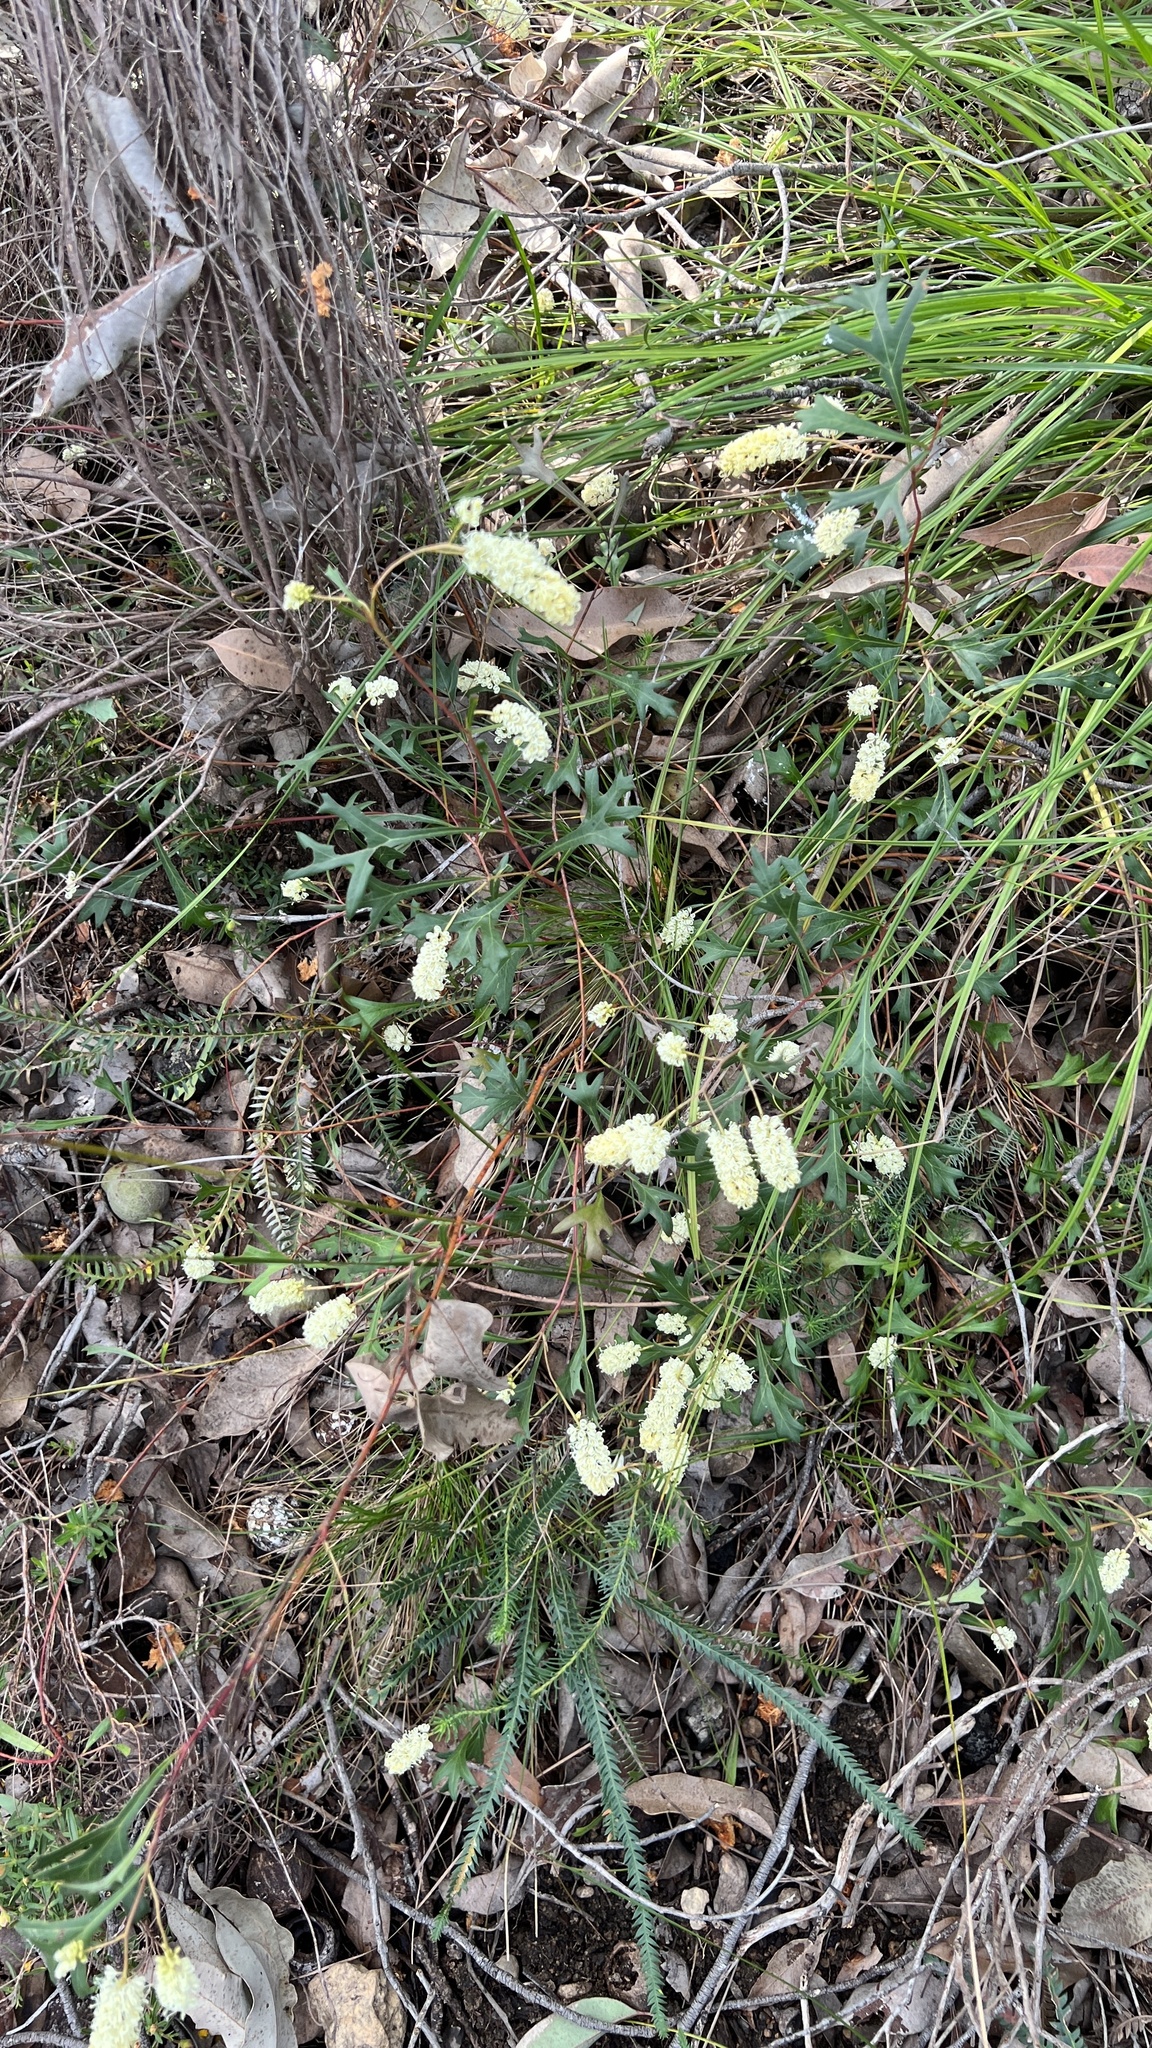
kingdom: Plantae
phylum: Tracheophyta
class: Magnoliopsida
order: Proteales
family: Proteaceae
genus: Grevillea
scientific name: Grevillea synaphea
